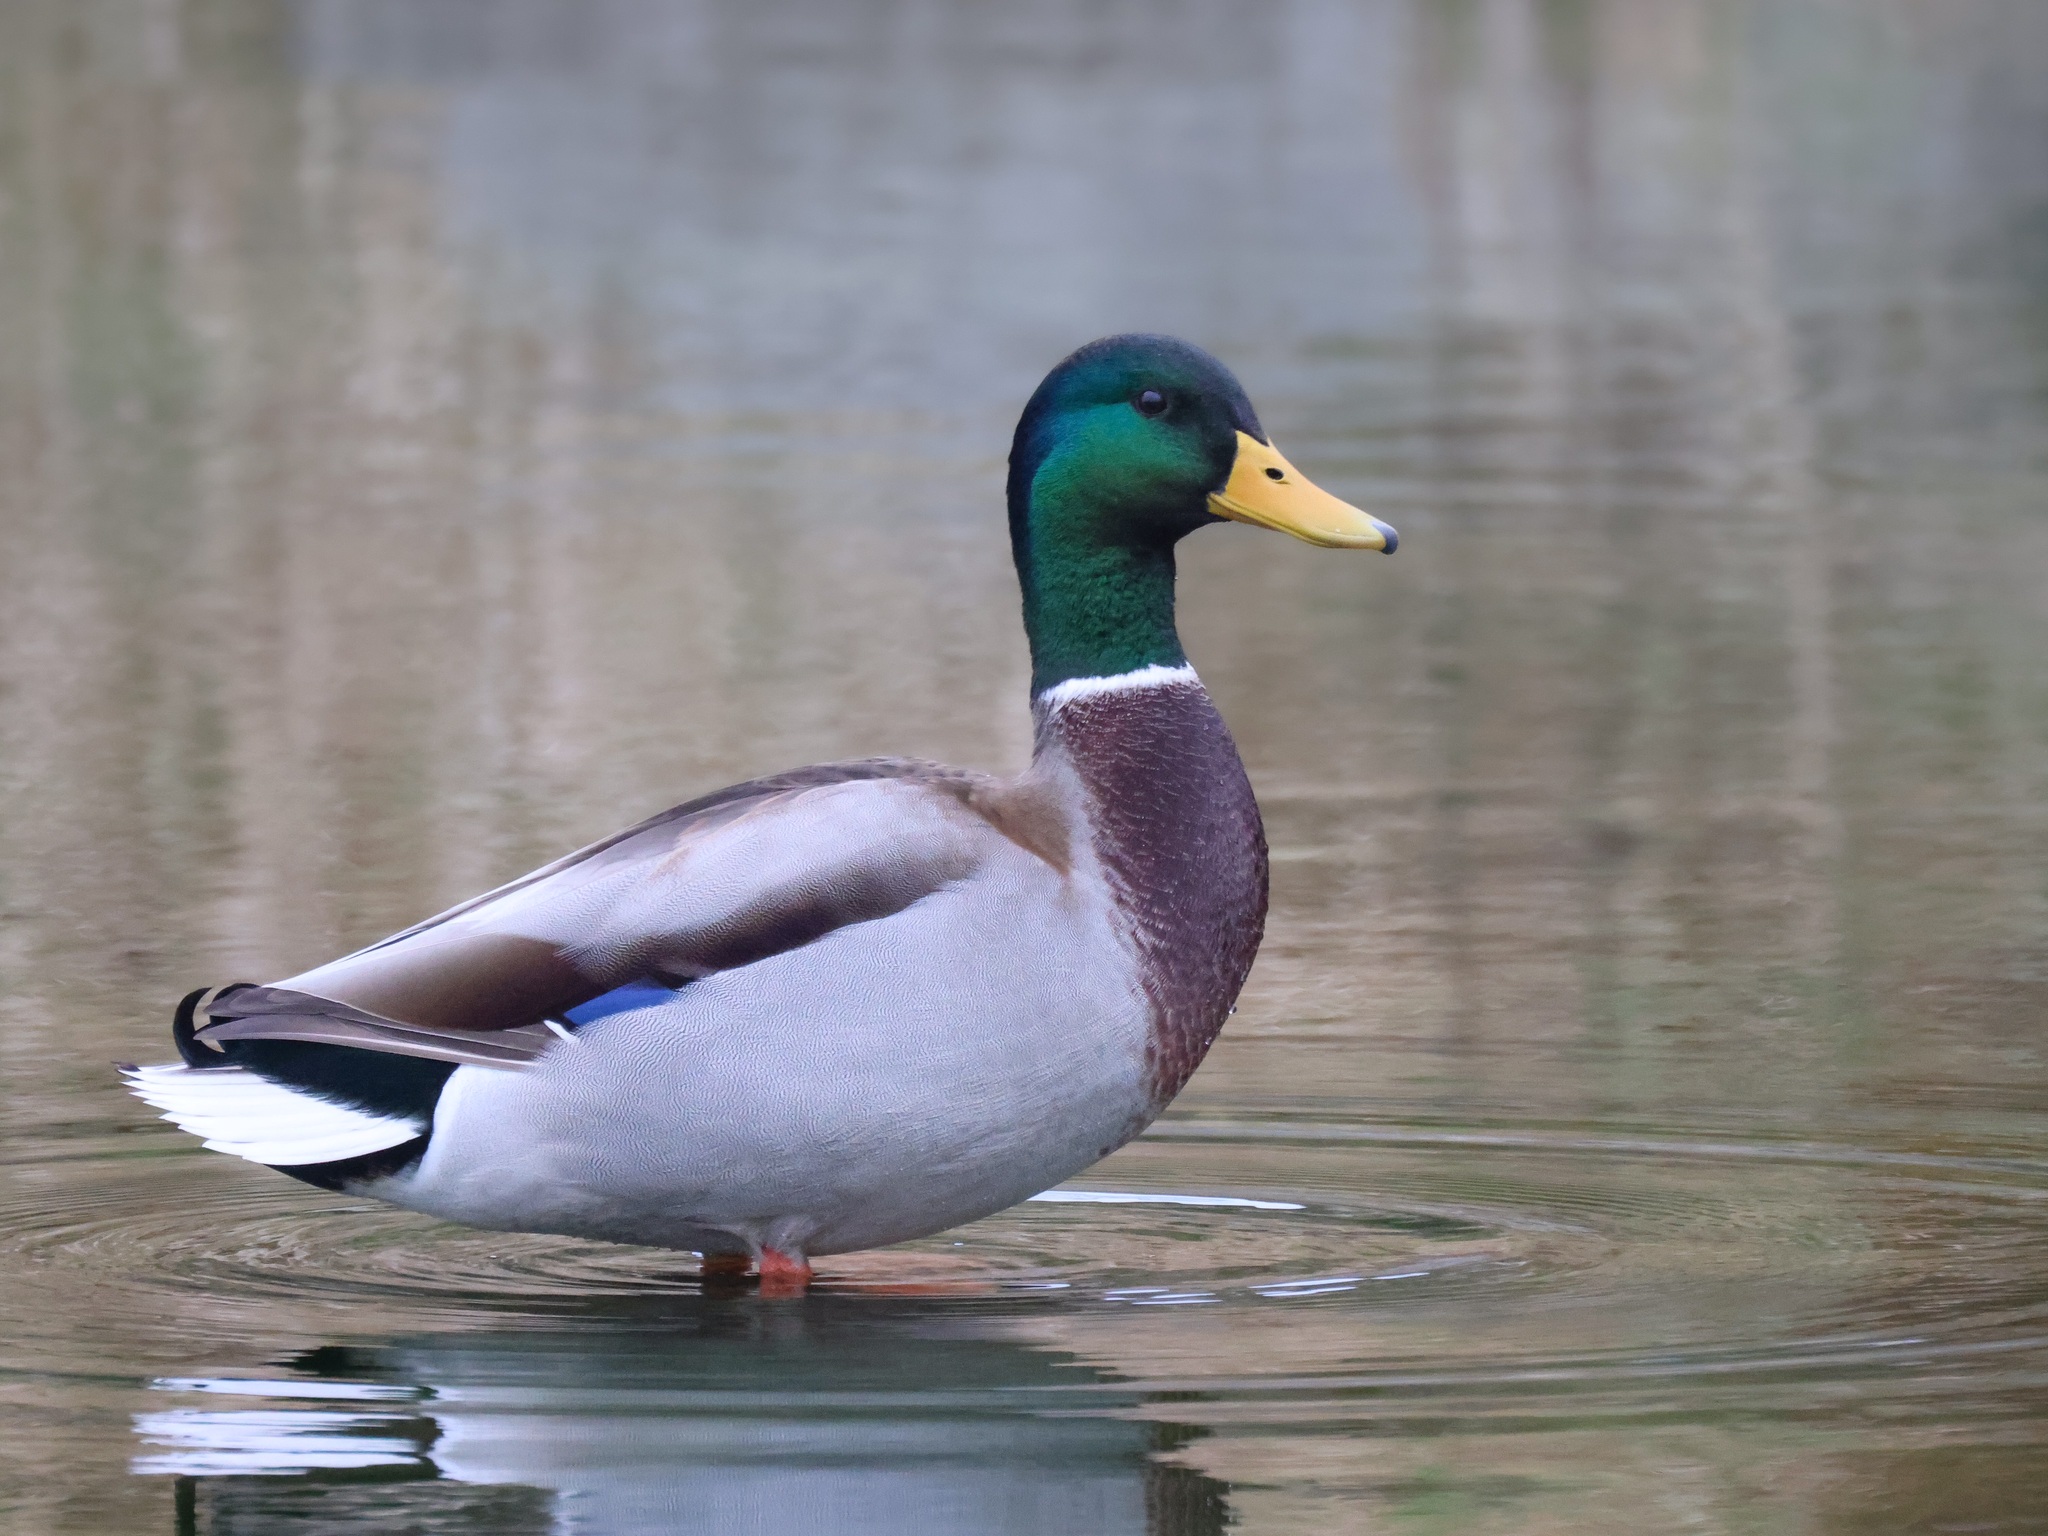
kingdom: Animalia
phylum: Chordata
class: Aves
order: Anseriformes
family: Anatidae
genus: Anas
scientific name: Anas platyrhynchos
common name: Mallard
